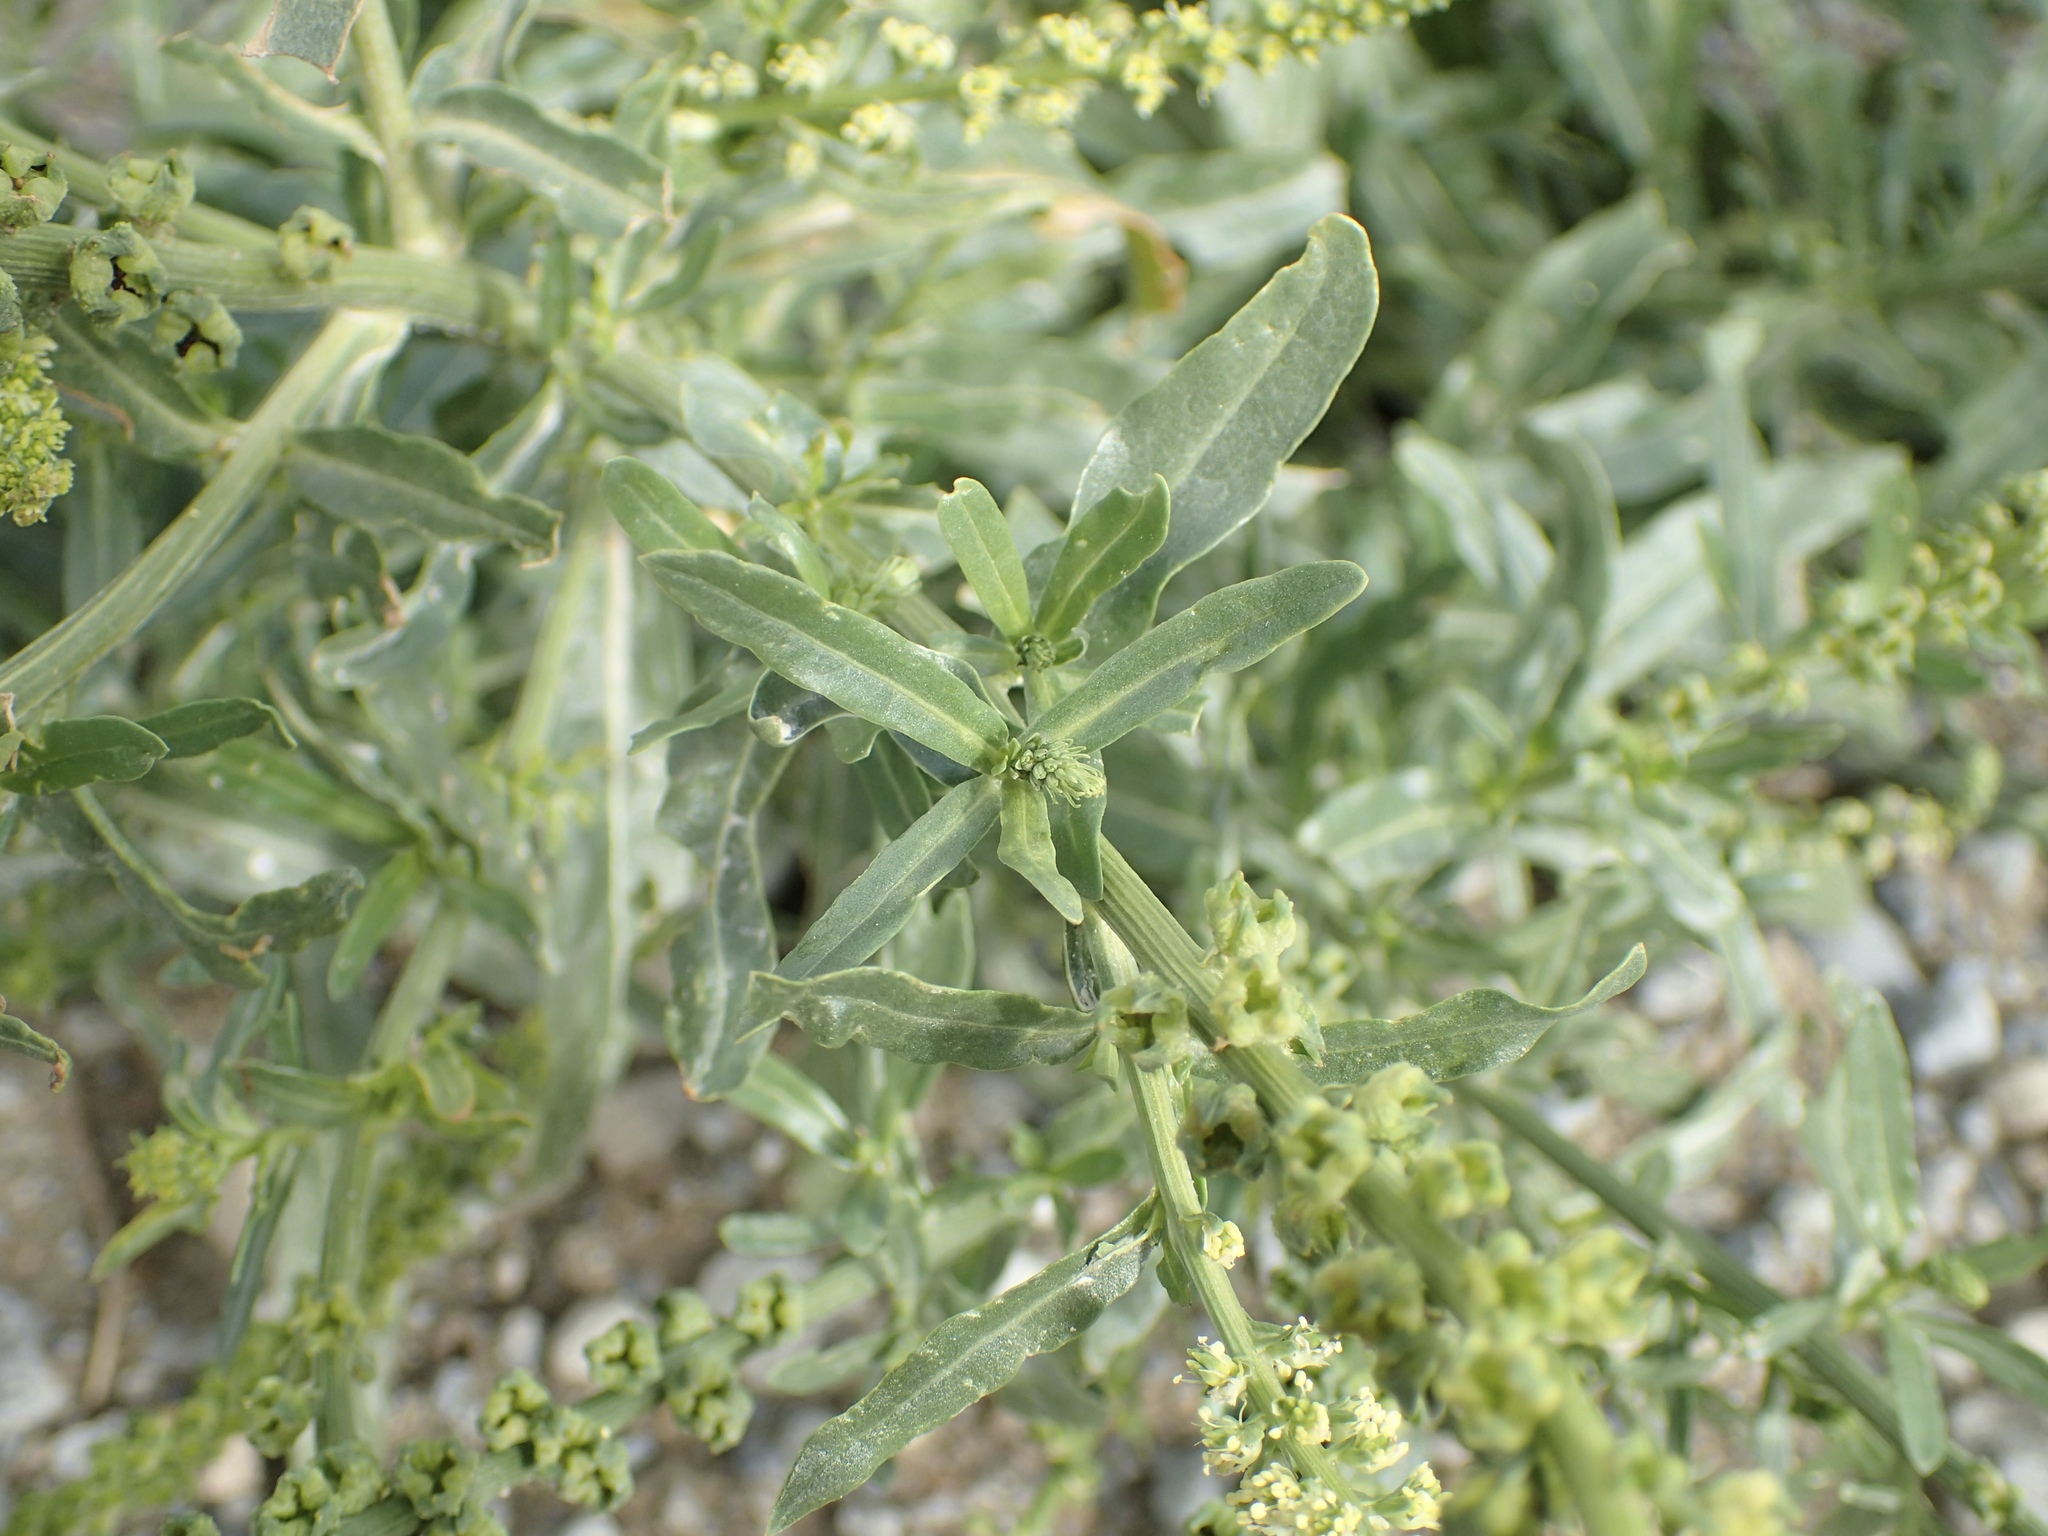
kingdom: Plantae
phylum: Tracheophyta
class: Magnoliopsida
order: Brassicales
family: Resedaceae
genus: Reseda
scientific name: Reseda luteola
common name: Weld
